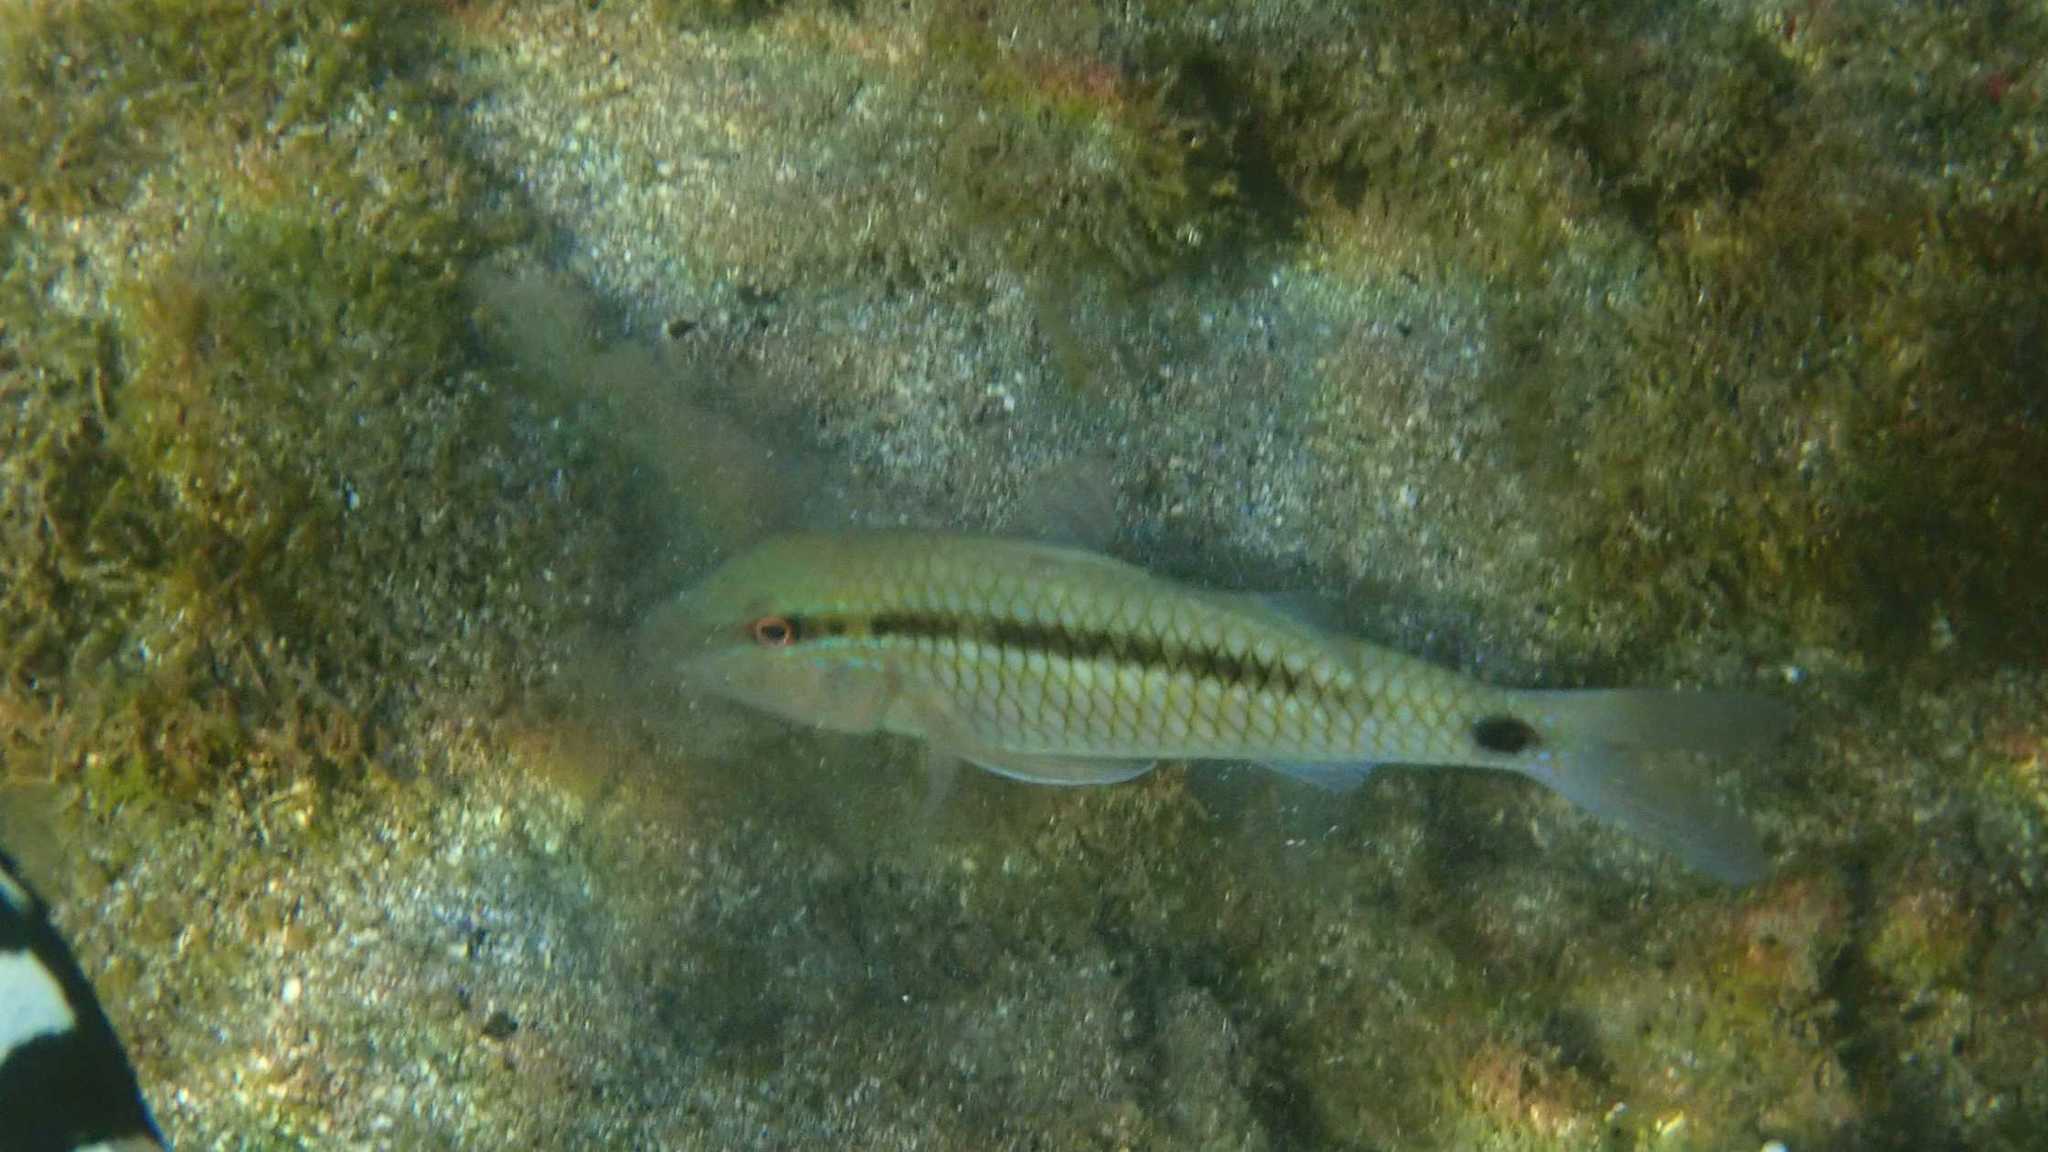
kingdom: Animalia
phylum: Chordata
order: Perciformes
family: Mullidae
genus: Parupeneus
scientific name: Parupeneus barberinus
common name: Dash-and-dot goatfish
